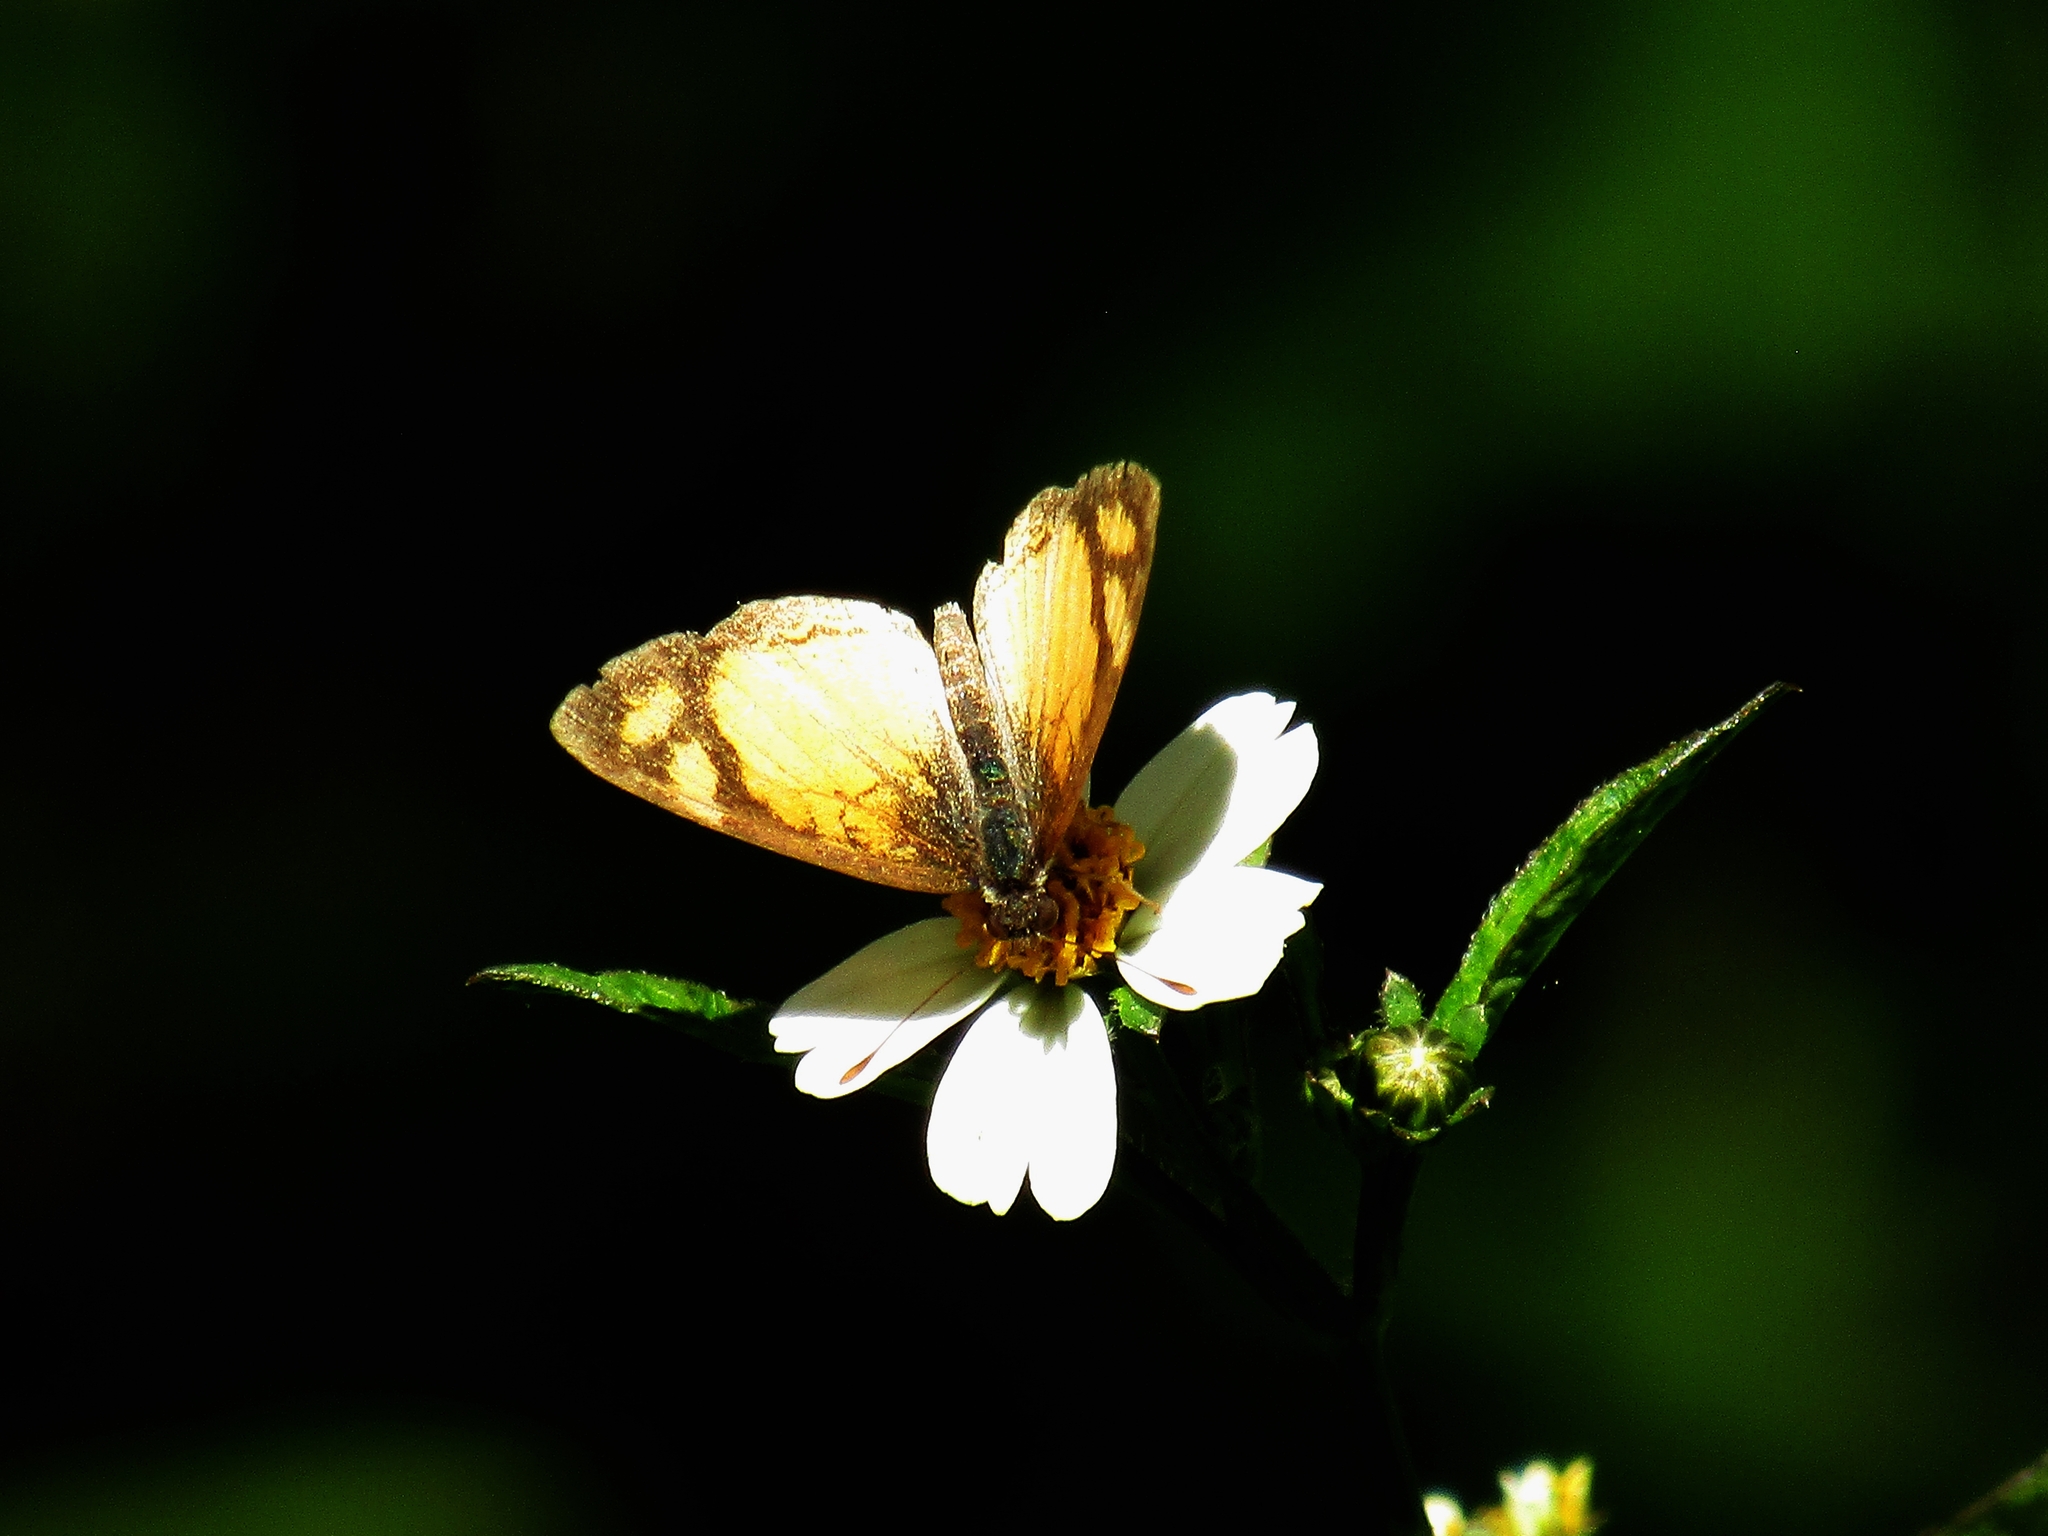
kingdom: Animalia
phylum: Arthropoda
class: Insecta
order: Lepidoptera
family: Nymphalidae
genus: Tegosa
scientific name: Tegosa claudina
